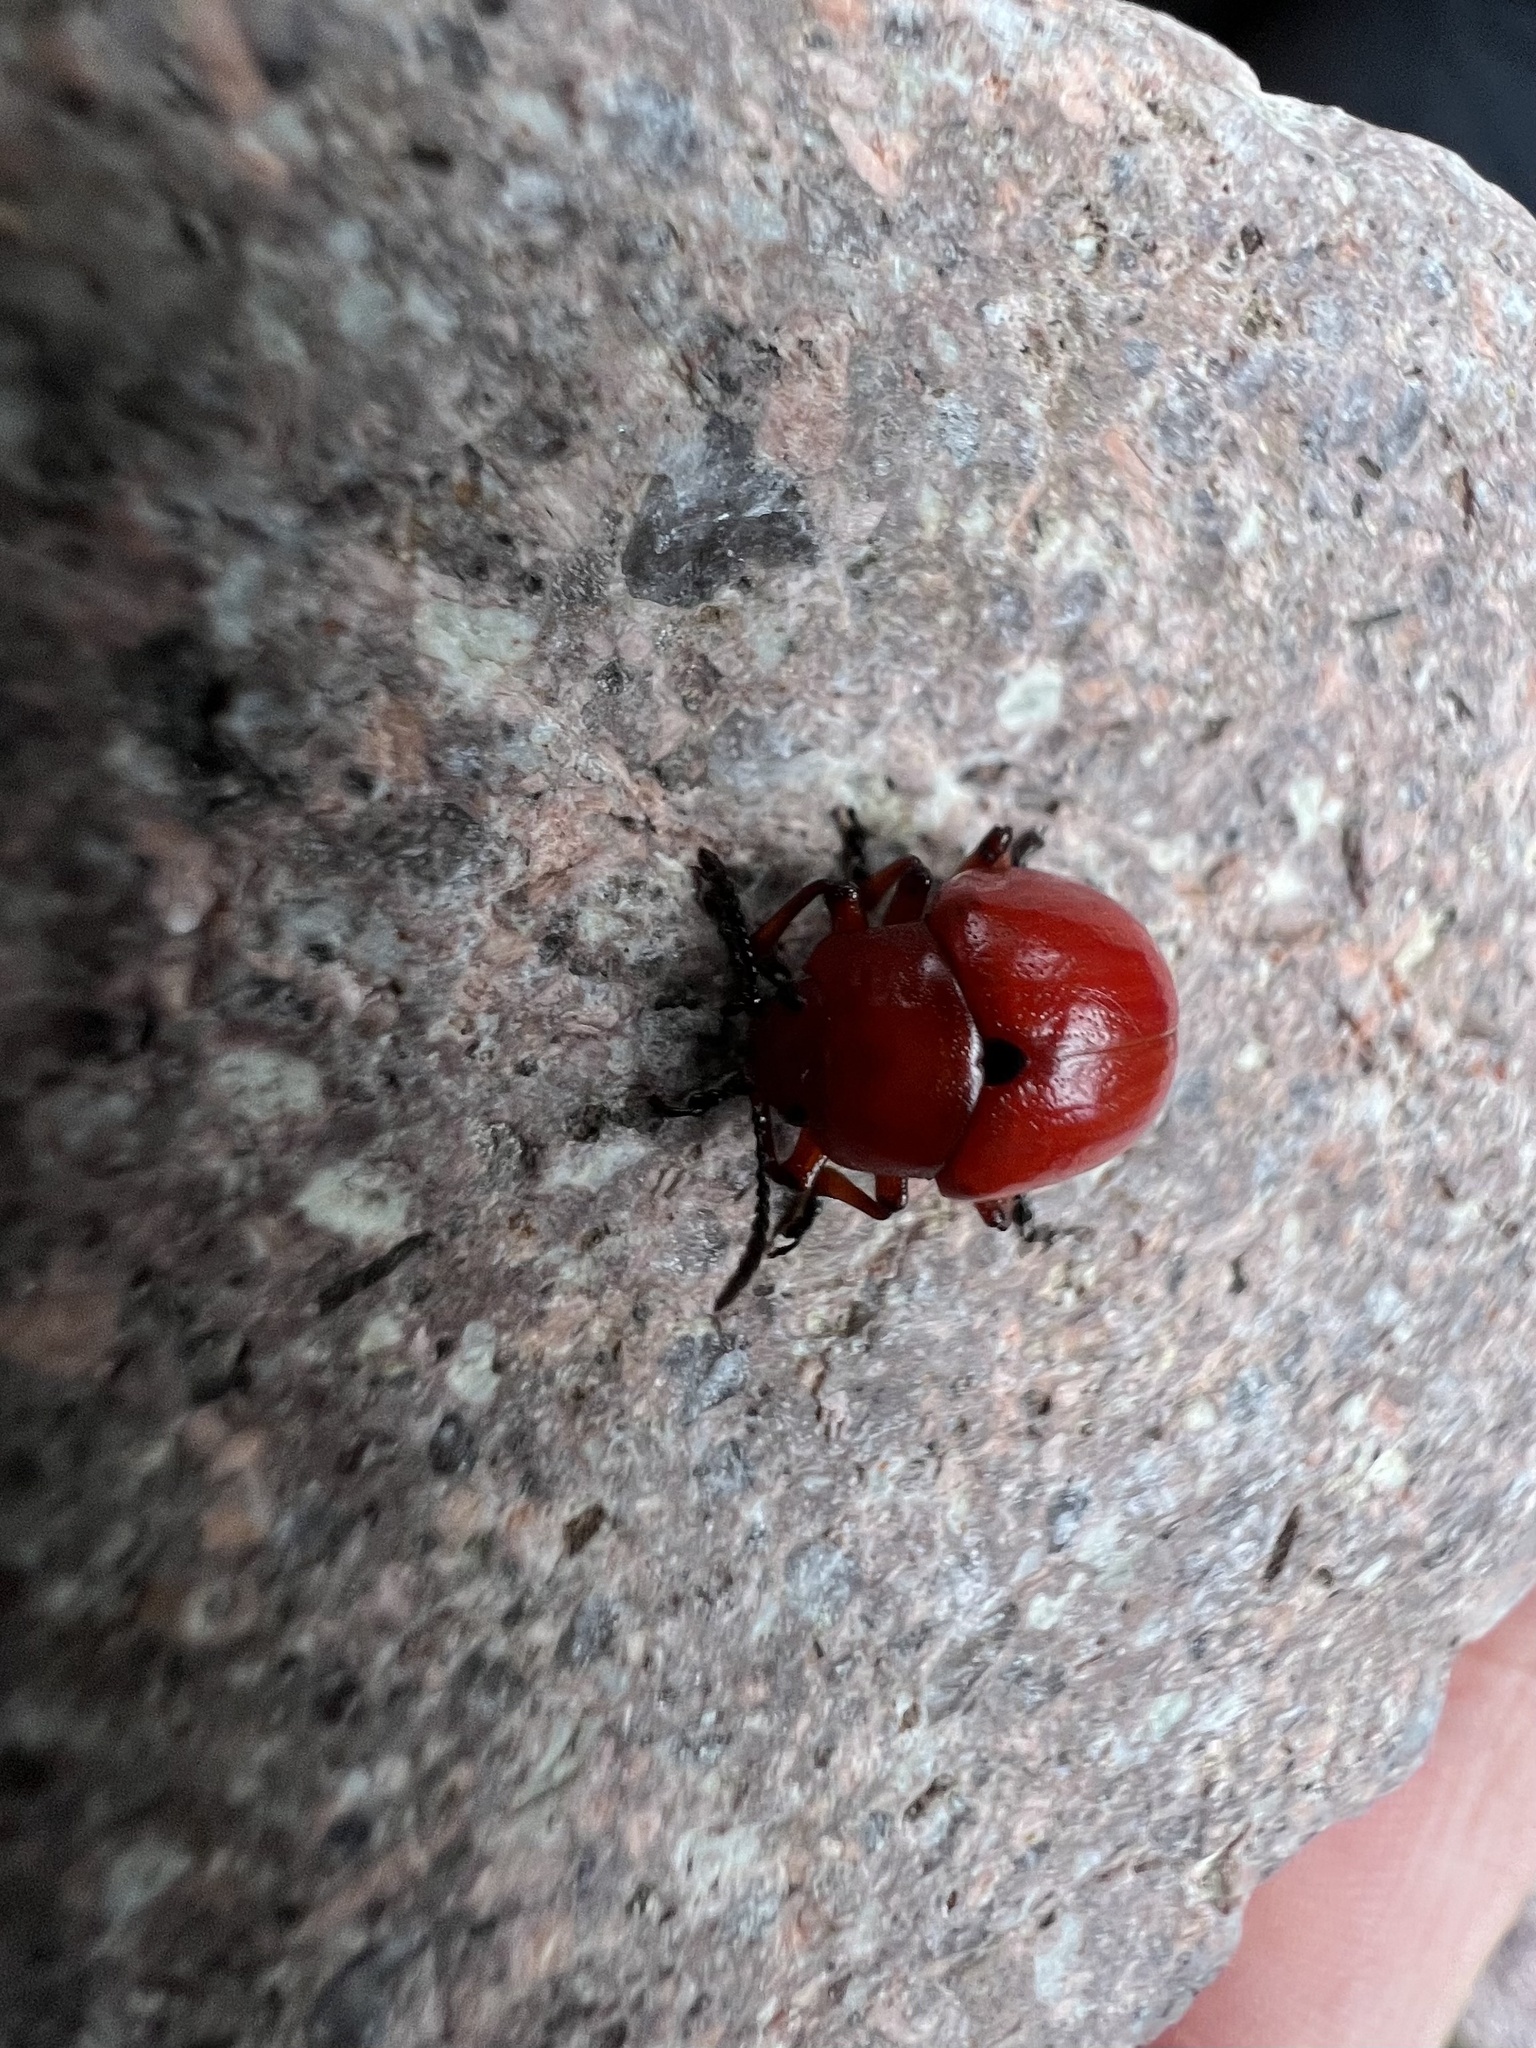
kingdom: Animalia
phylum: Arthropoda
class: Insecta
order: Coleoptera
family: Chrysomelidae
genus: Leptinotarsa
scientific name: Leptinotarsa rubiginosa
